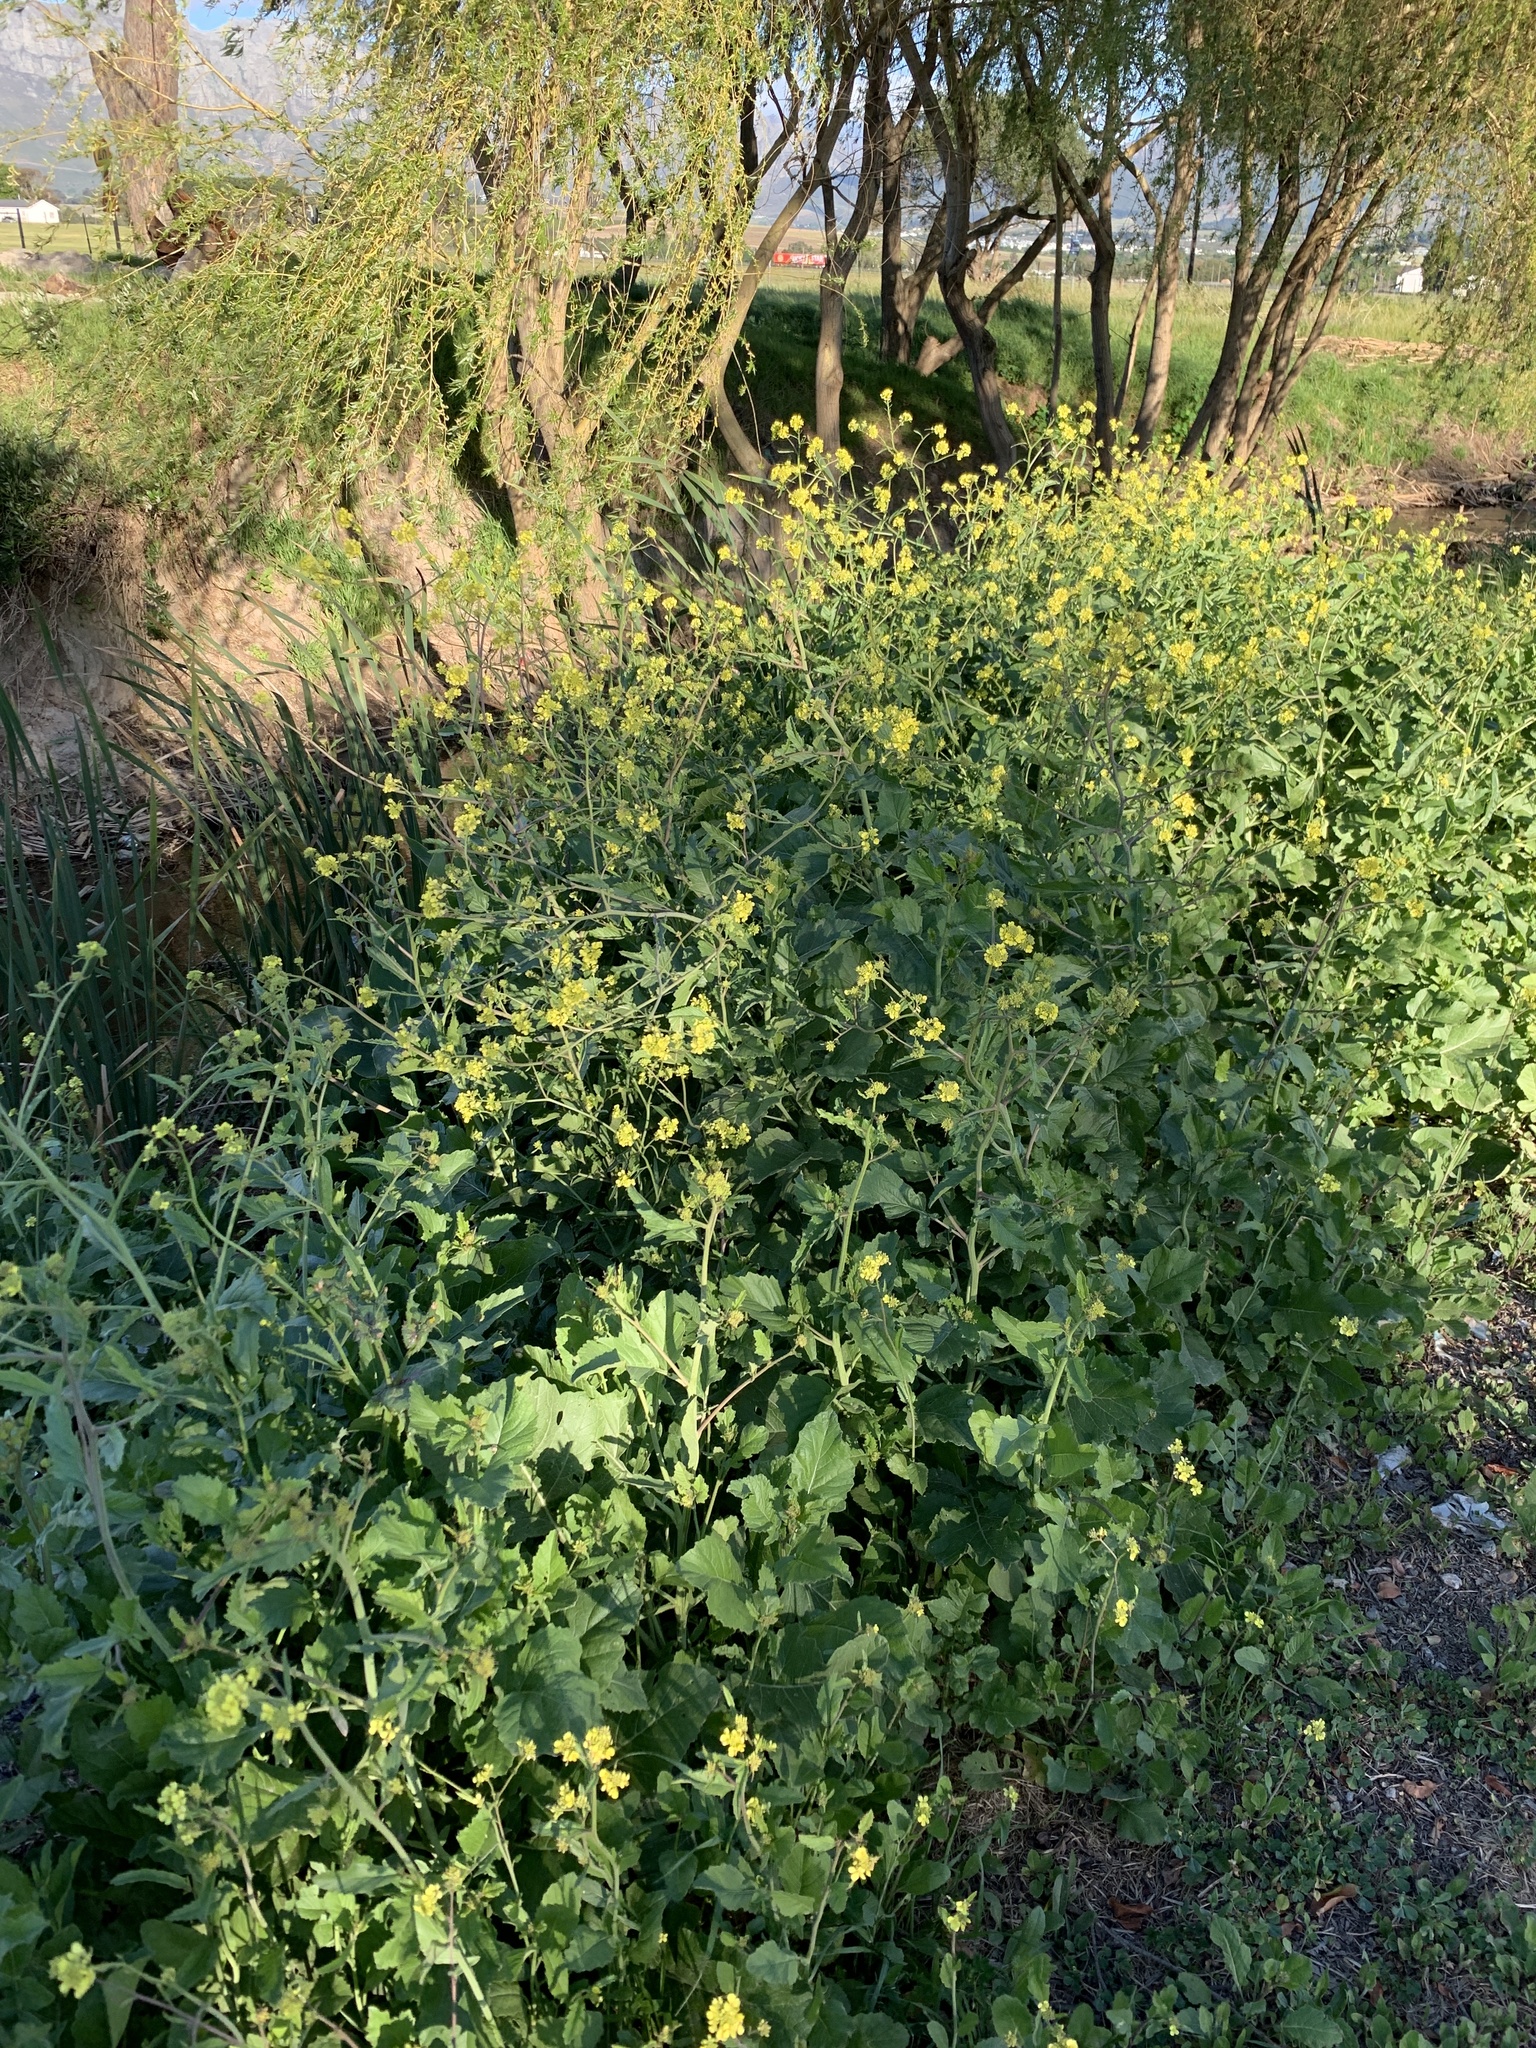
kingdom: Plantae
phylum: Tracheophyta
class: Magnoliopsida
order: Brassicales
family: Brassicaceae
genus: Rapistrum
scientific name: Rapistrum rugosum
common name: Annual bastardcabbage
